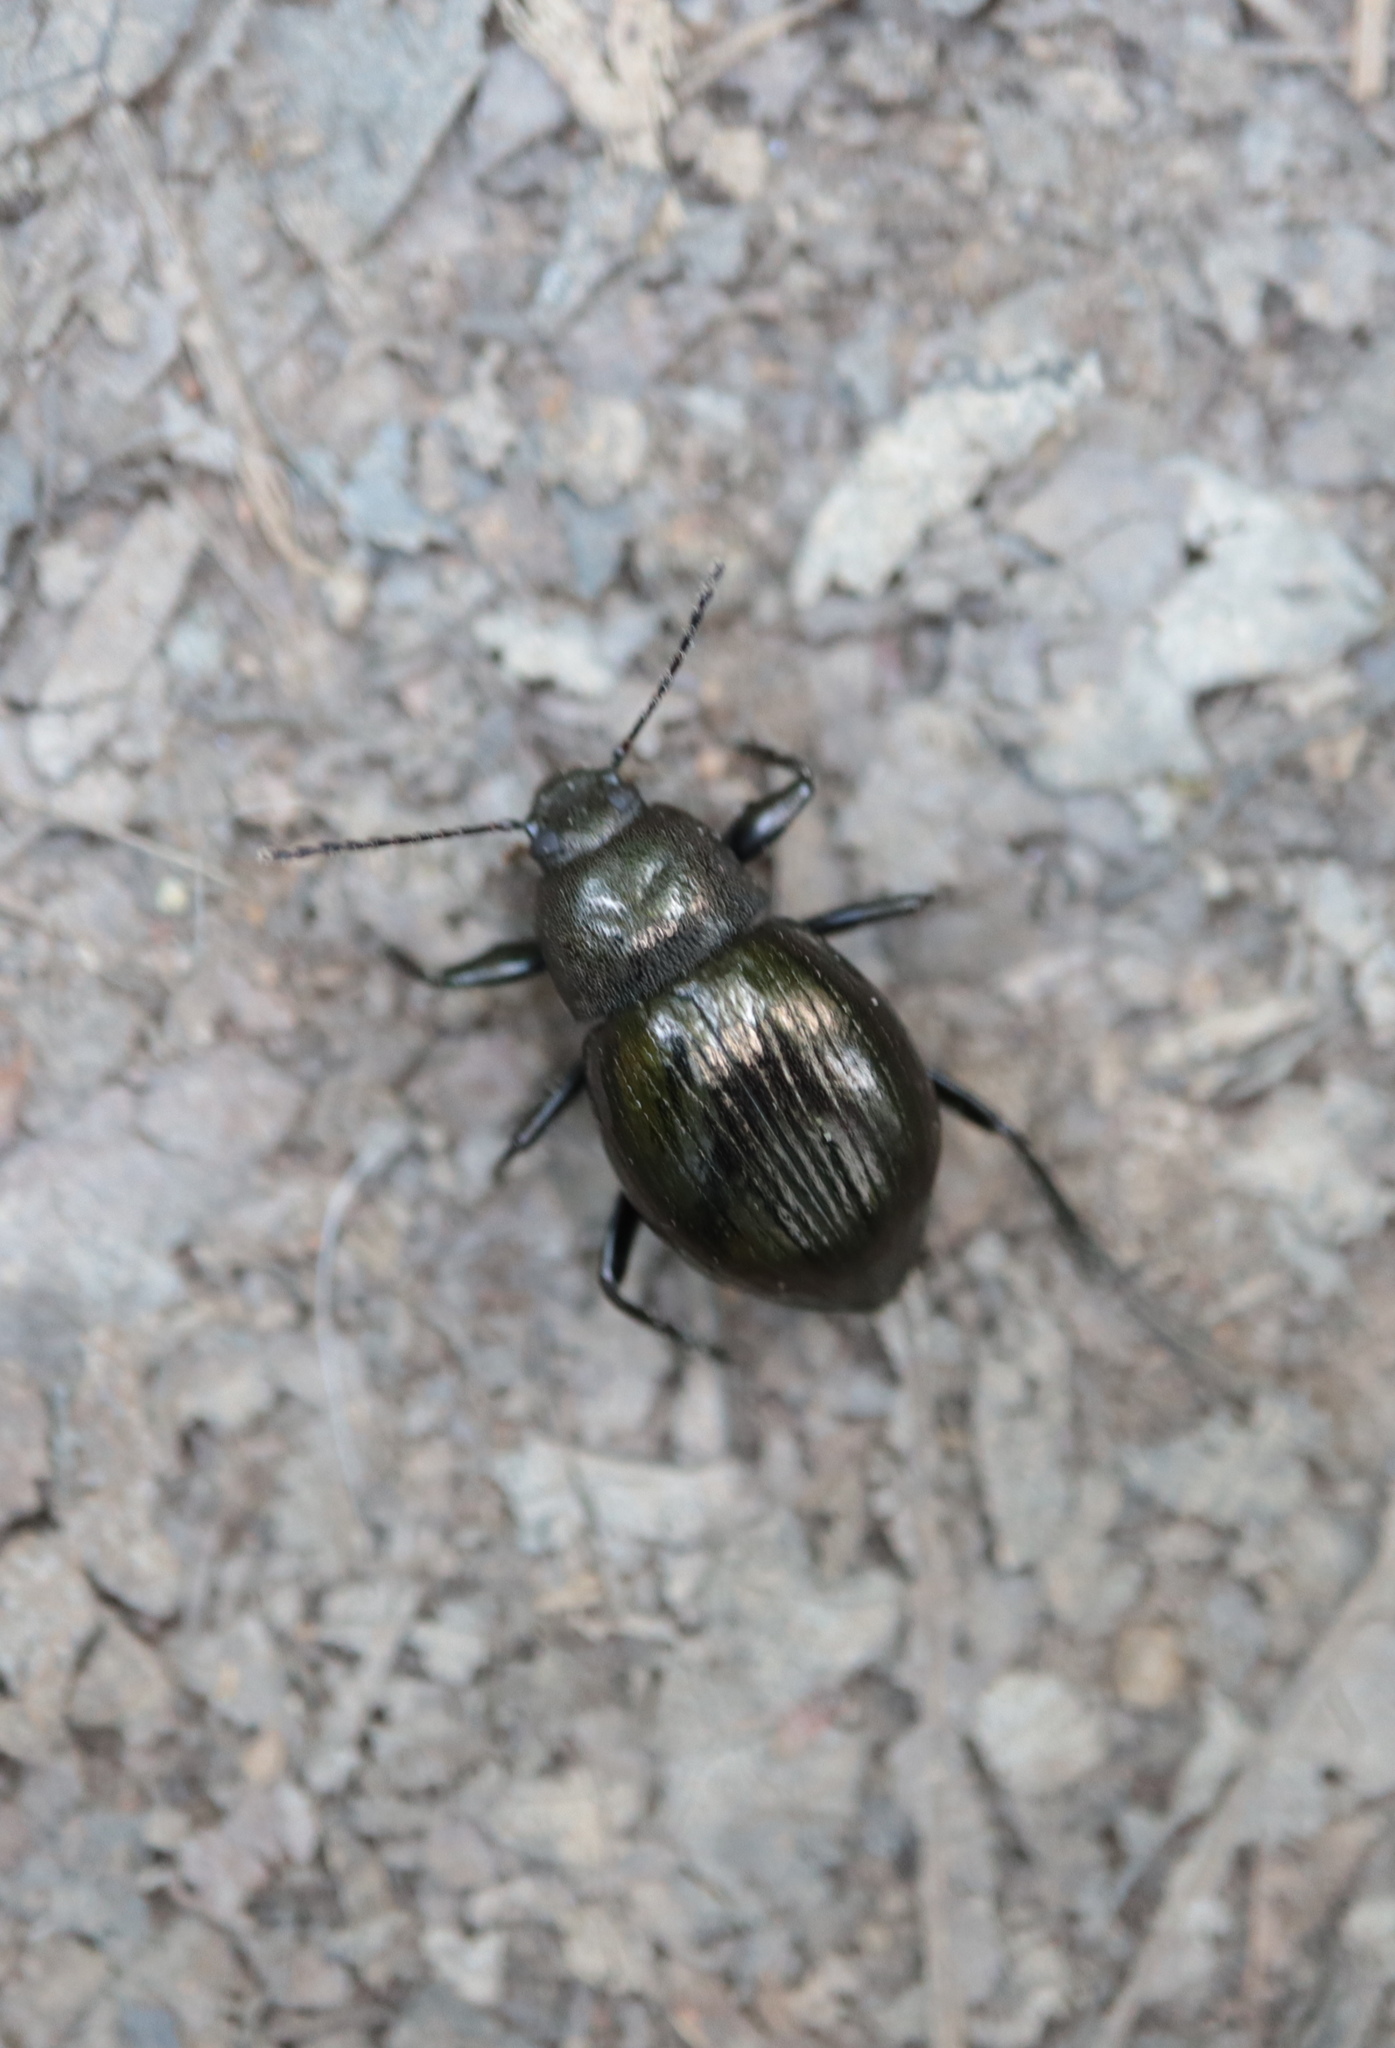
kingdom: Animalia
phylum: Arthropoda
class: Insecta
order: Coleoptera
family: Tenebrionidae
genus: Meracantha
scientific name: Meracantha contracta
